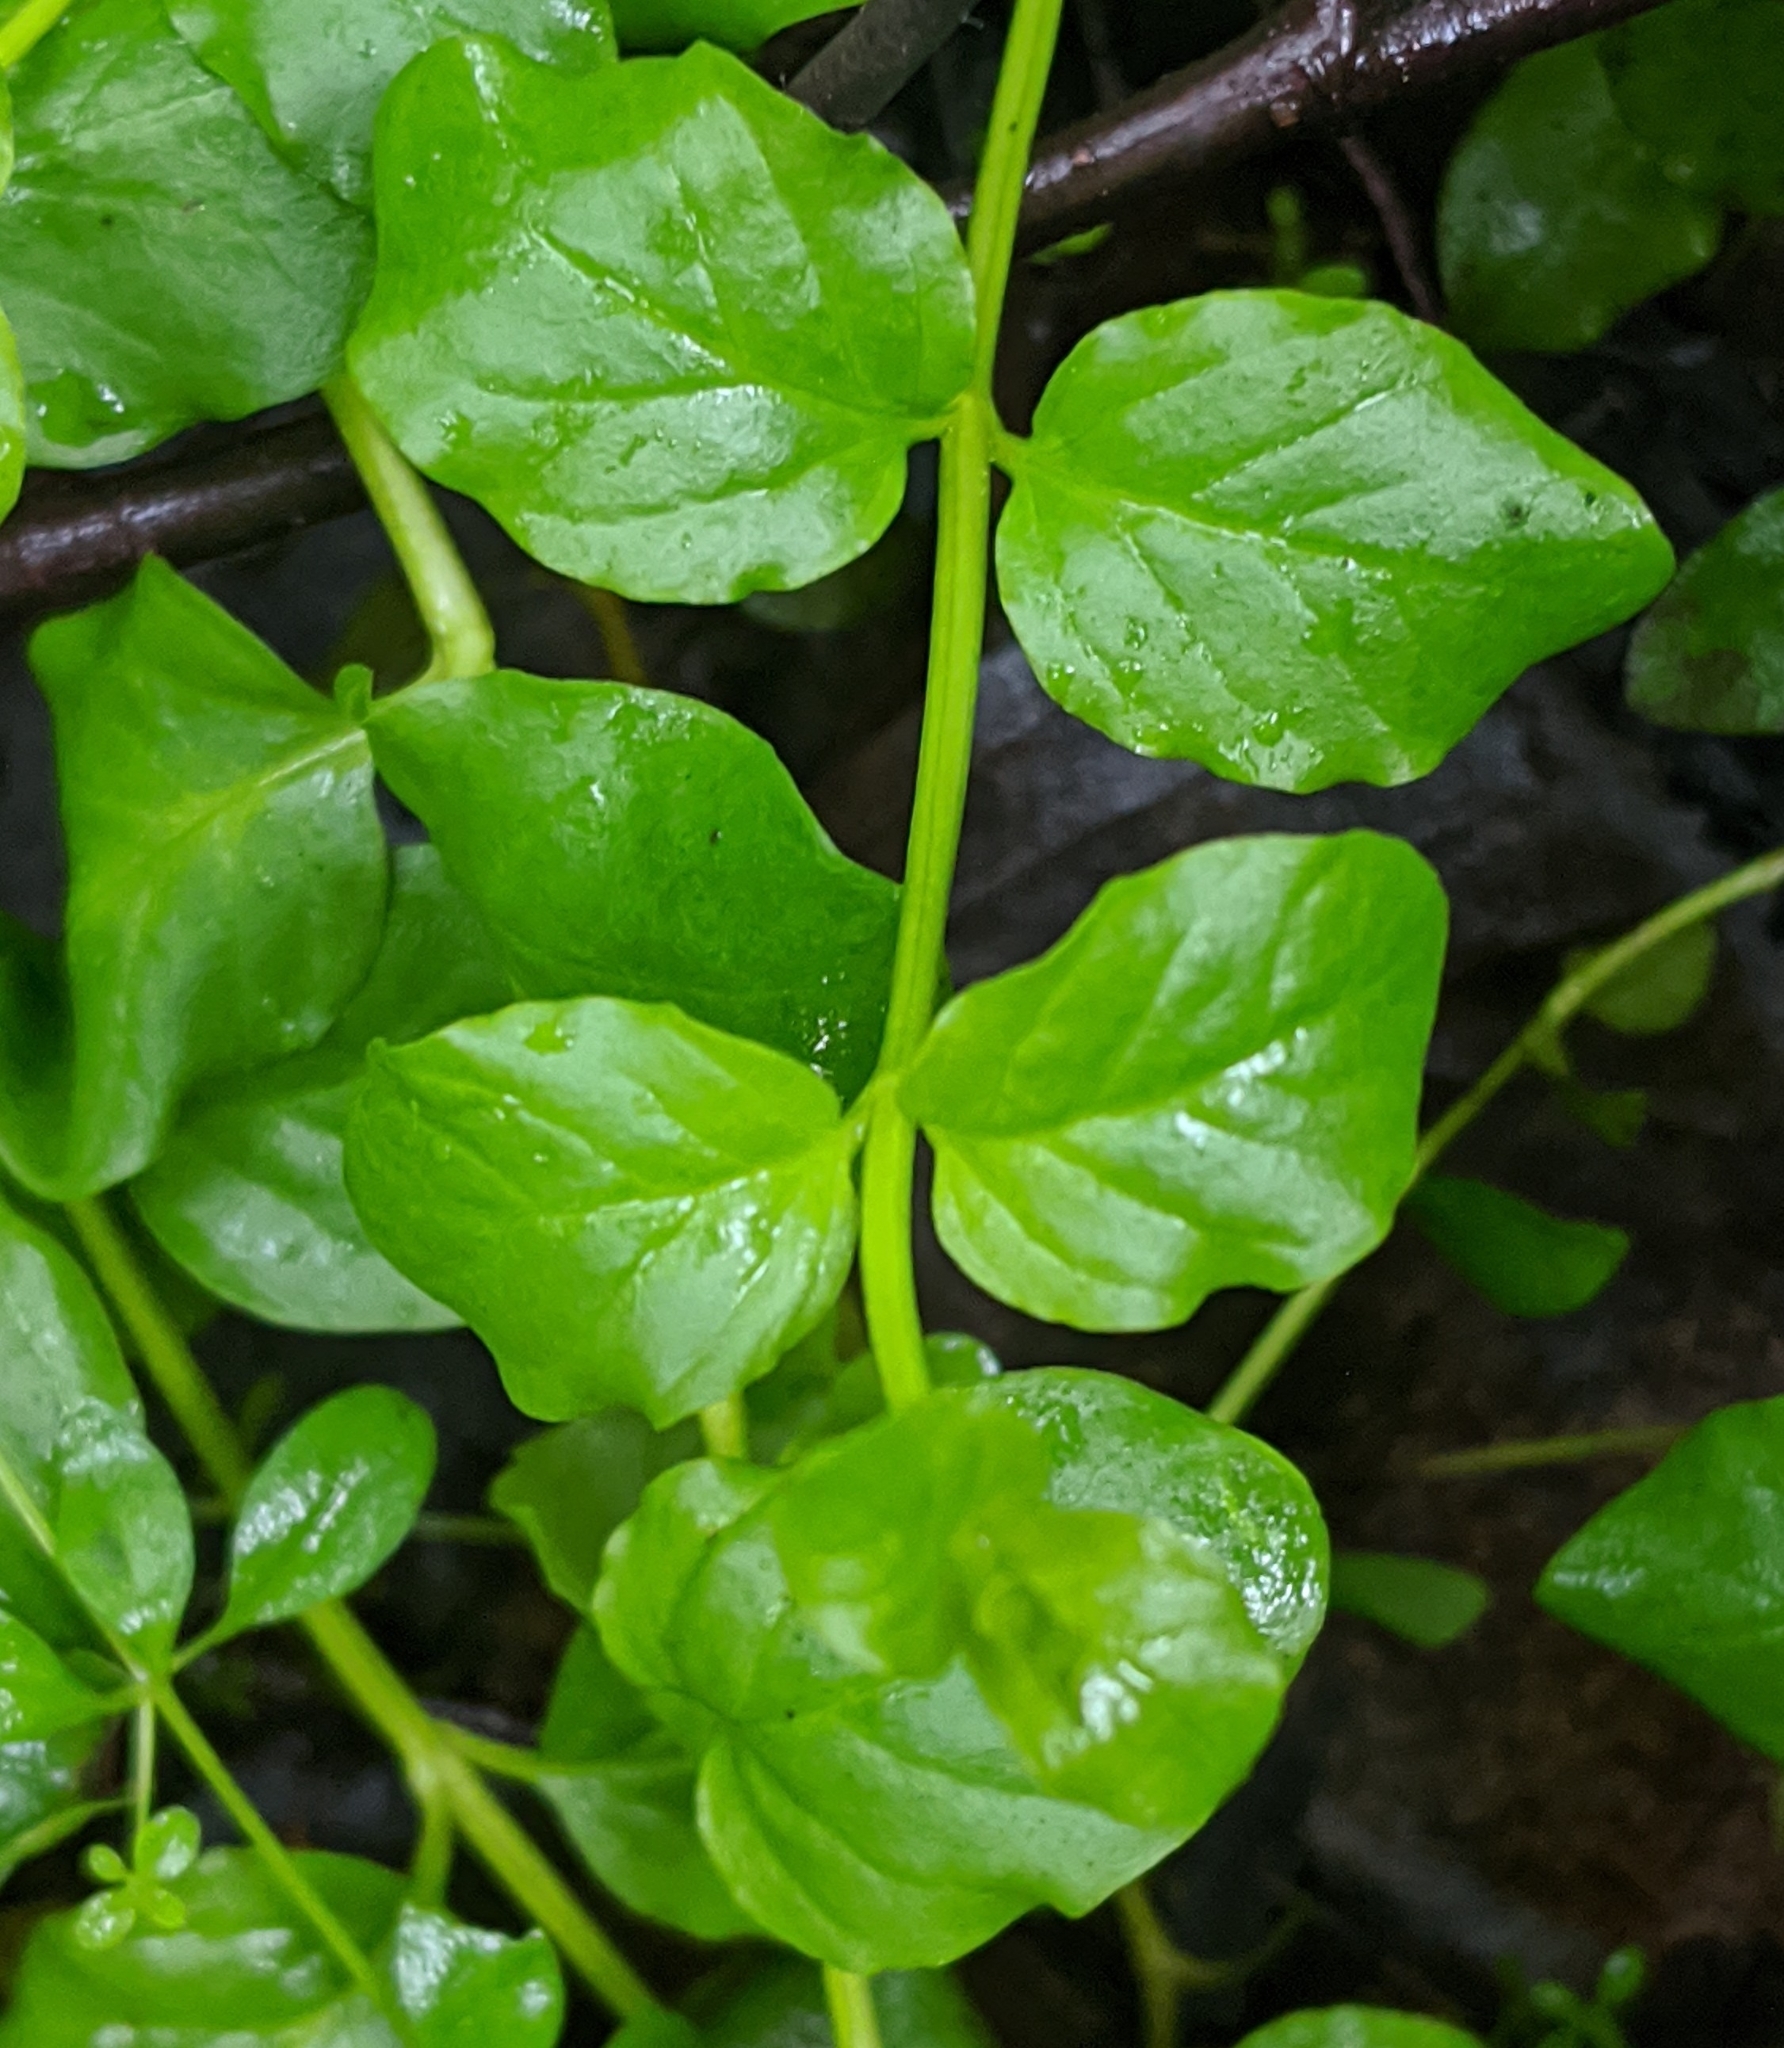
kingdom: Plantae
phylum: Tracheophyta
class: Magnoliopsida
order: Ericales
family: Primulaceae
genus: Lysimachia
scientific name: Lysimachia nummularia
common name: Moneywort
